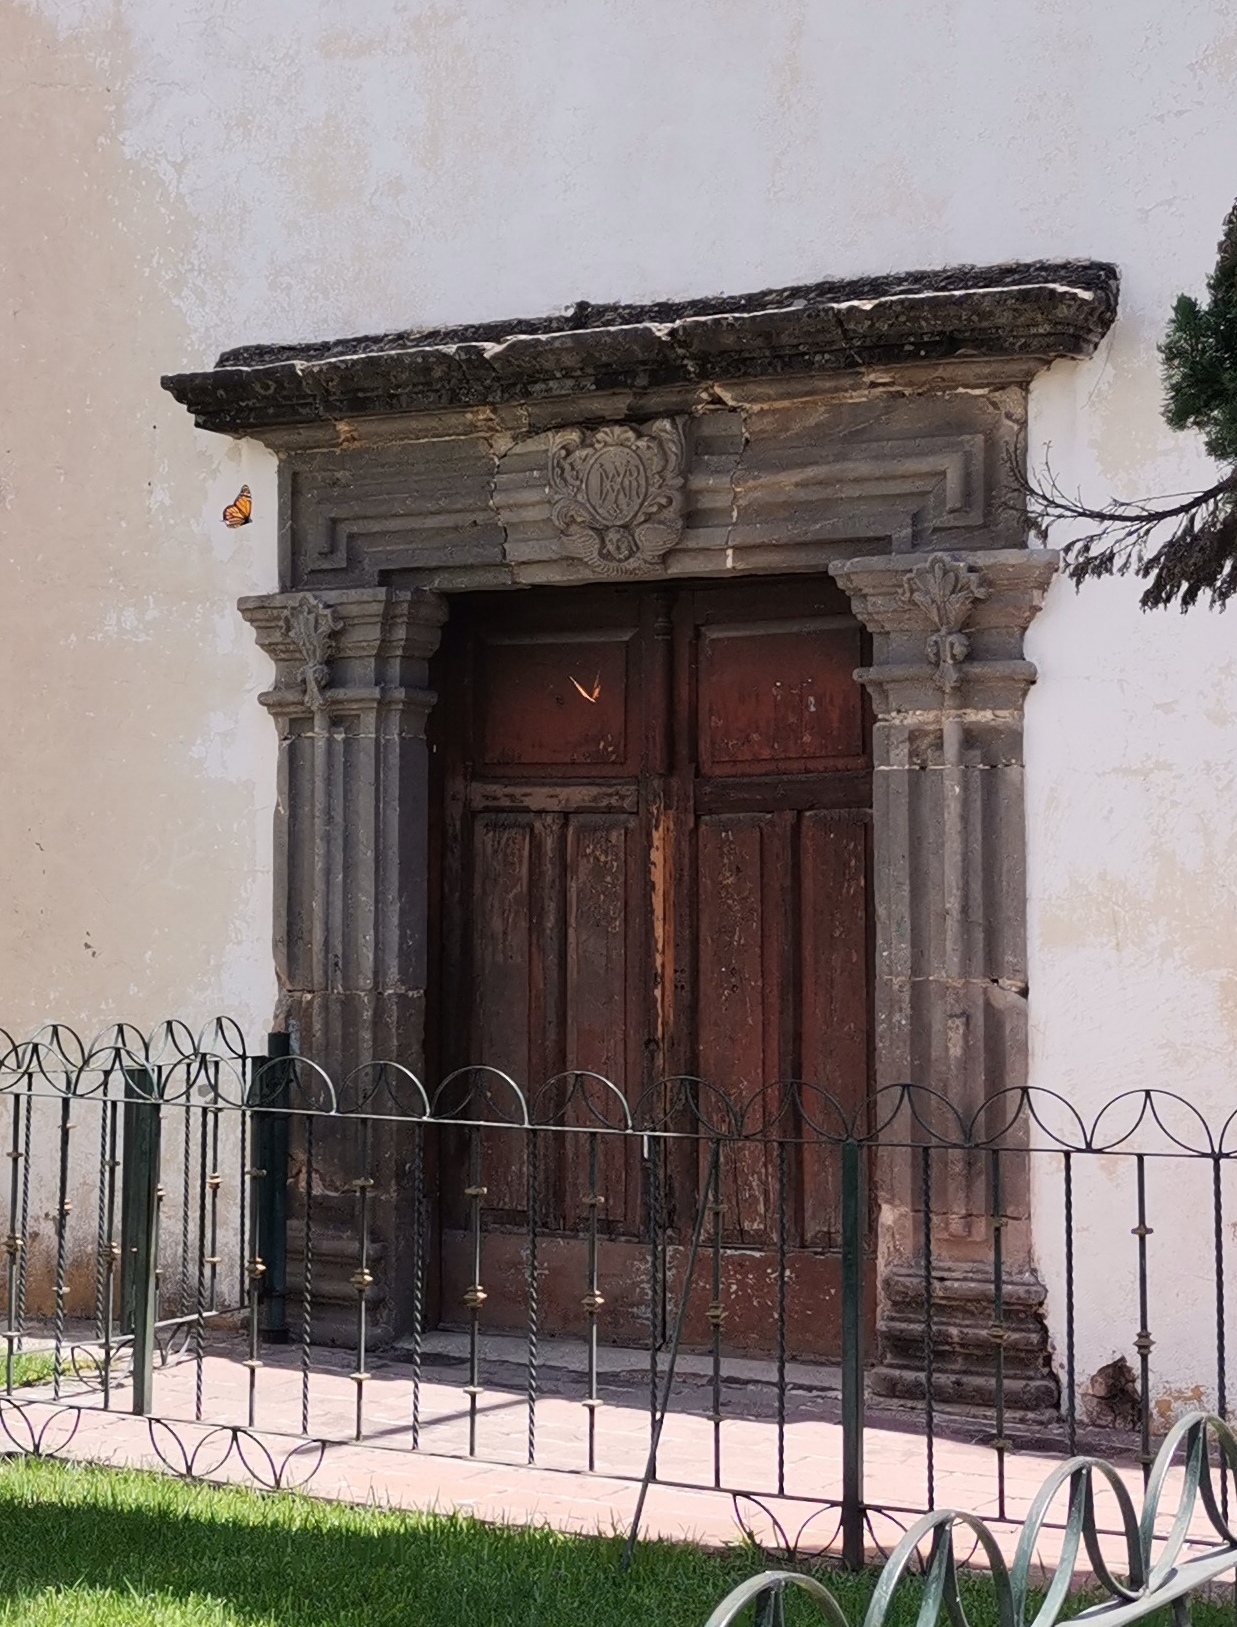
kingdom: Animalia
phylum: Arthropoda
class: Insecta
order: Lepidoptera
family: Nymphalidae
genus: Danaus
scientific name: Danaus plexippus
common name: Monarch
